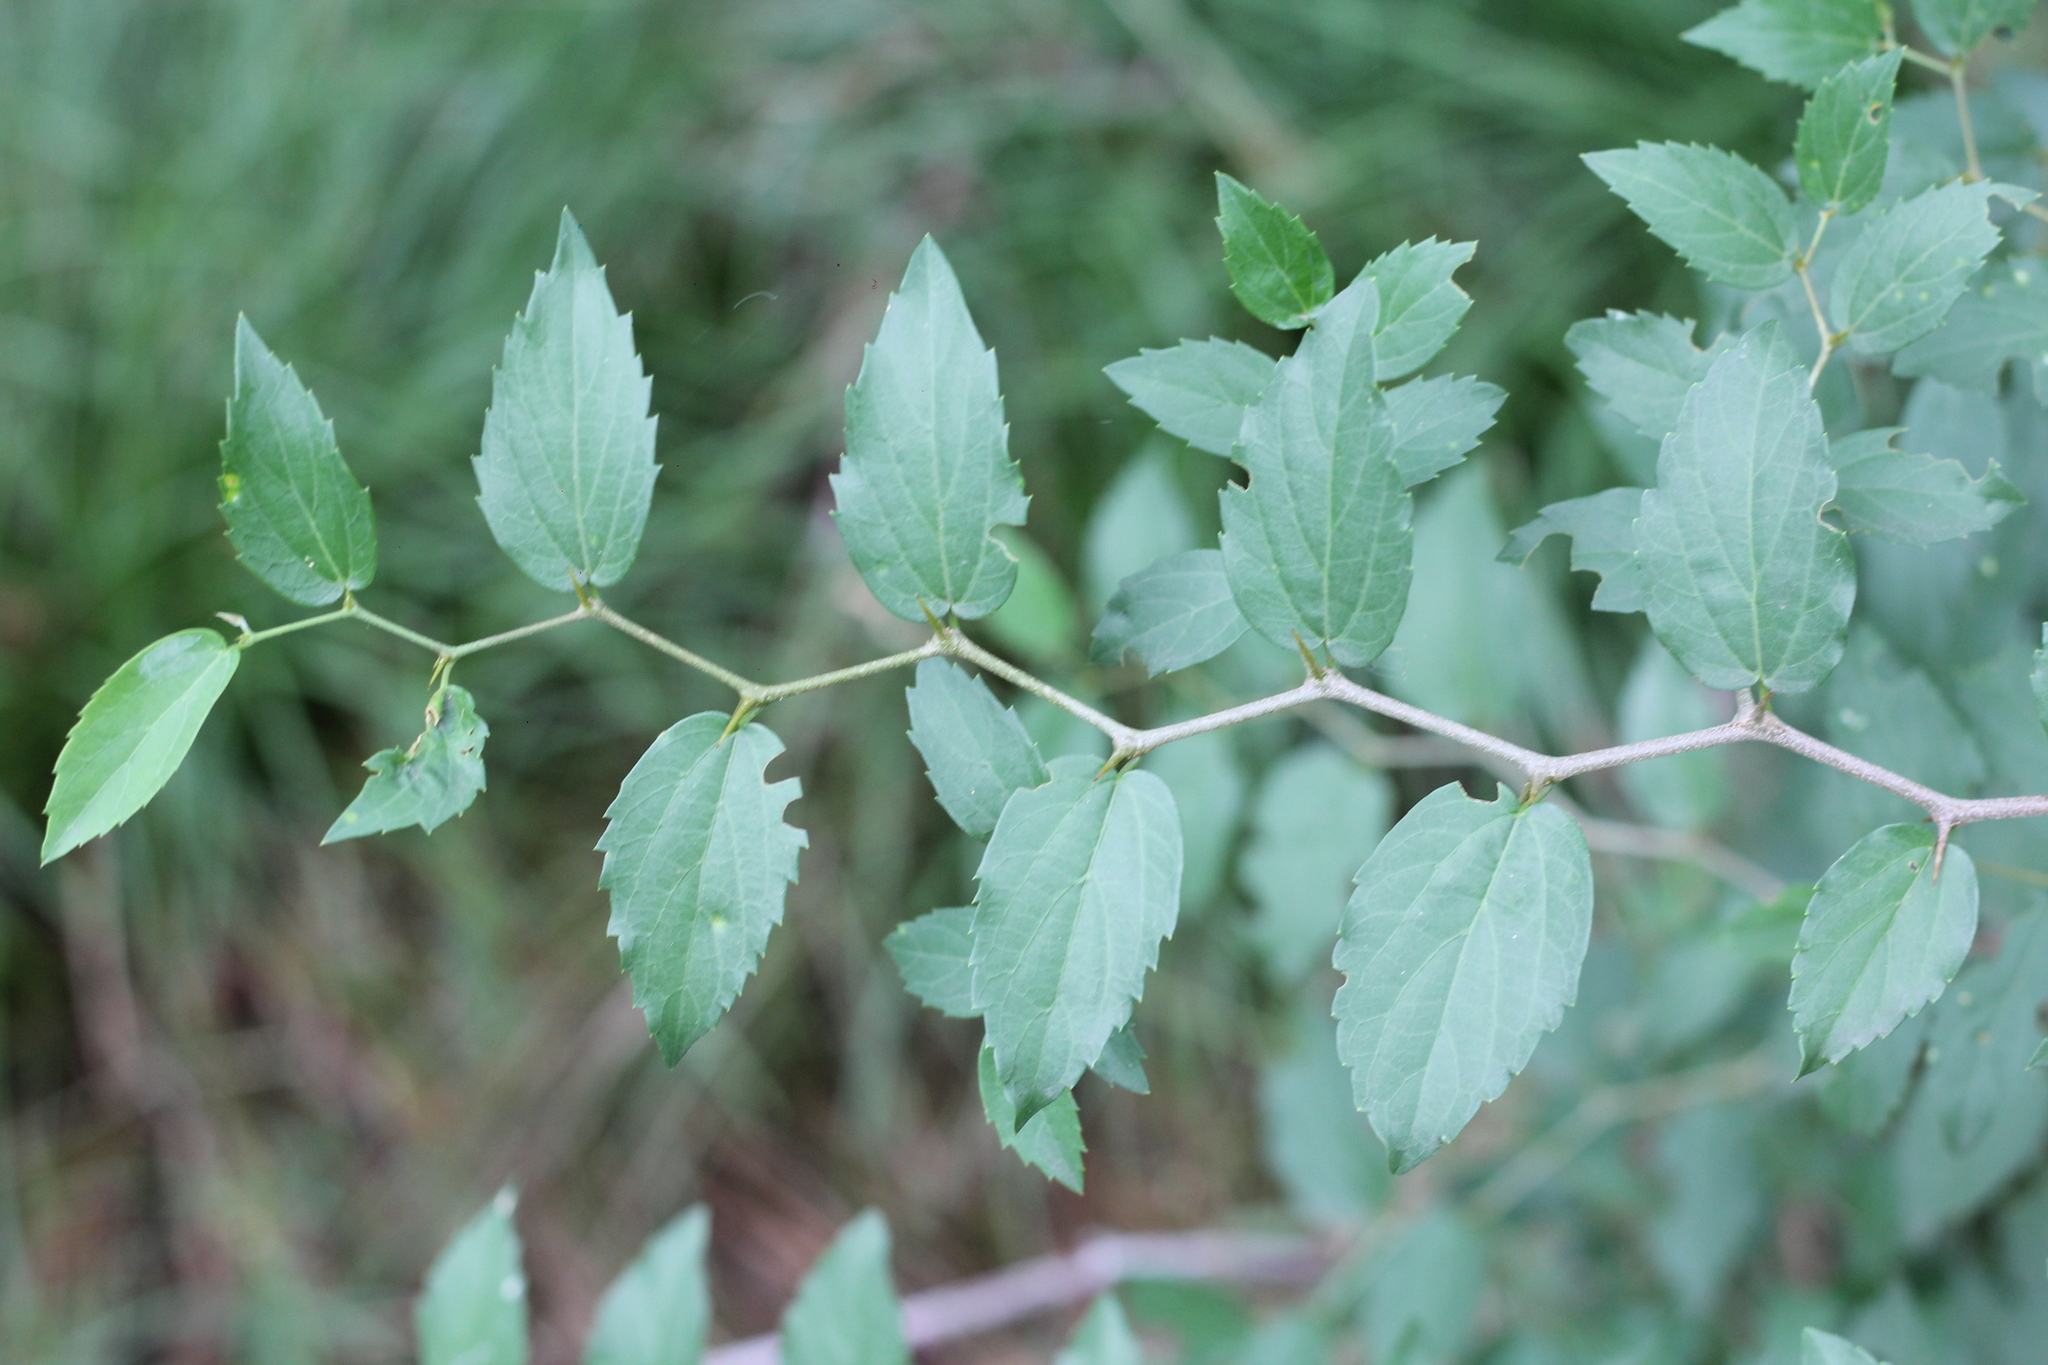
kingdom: Plantae
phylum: Tracheophyta
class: Magnoliopsida
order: Rosales
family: Cannabaceae
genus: Celtis
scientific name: Celtis tala
